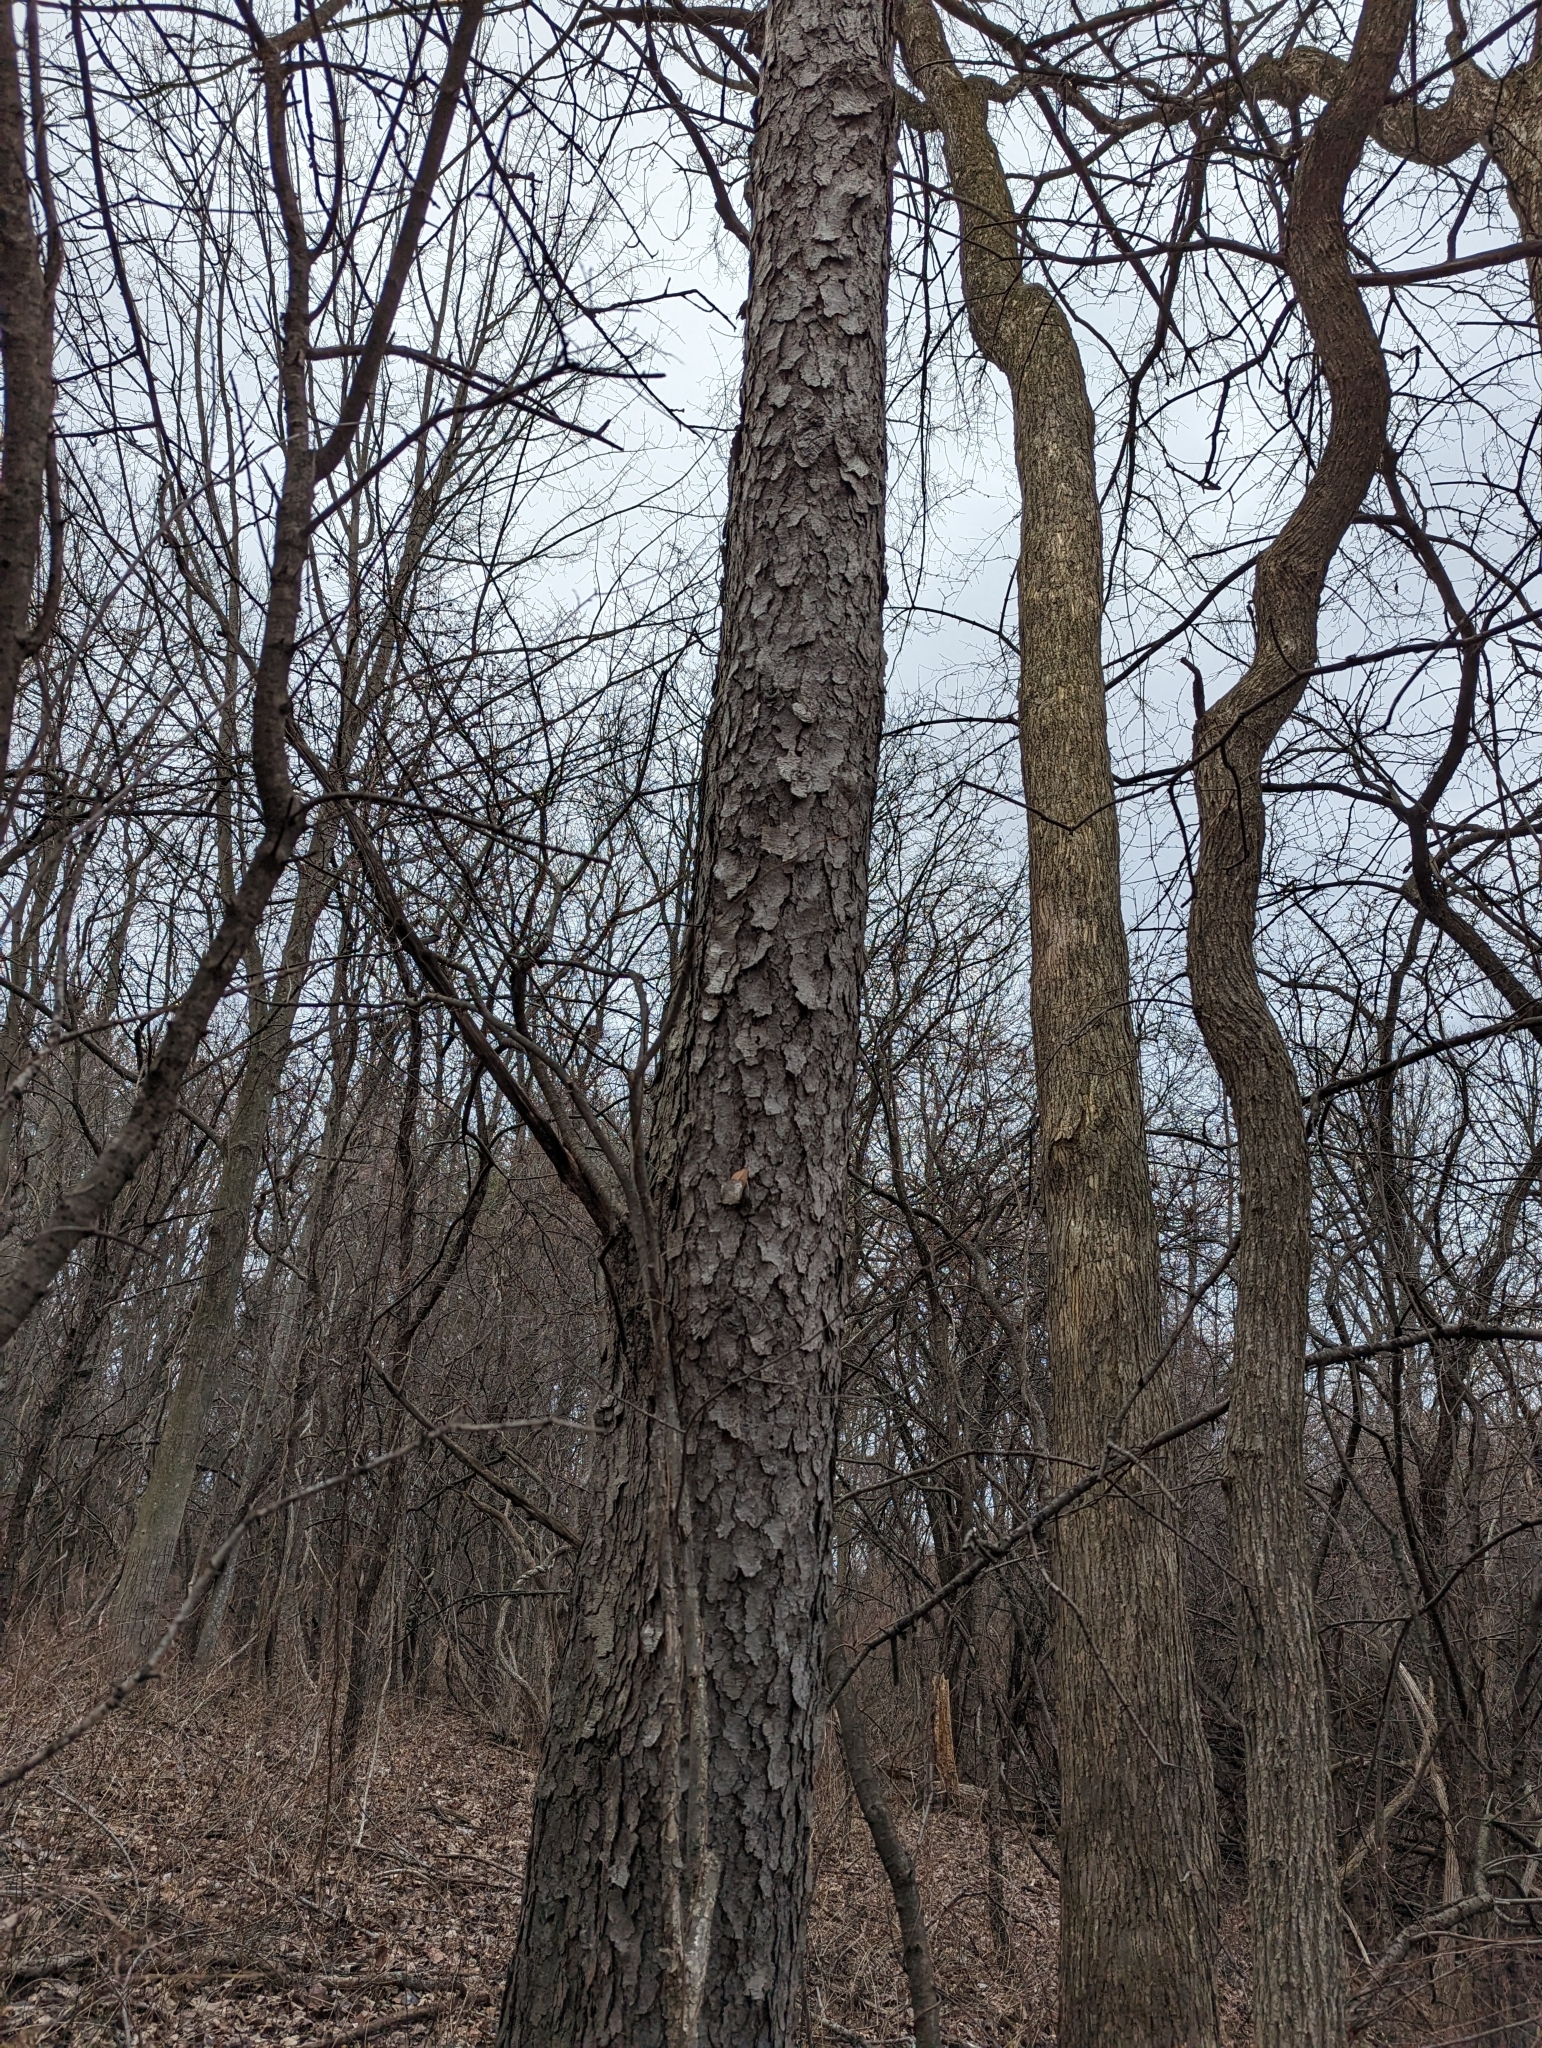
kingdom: Plantae
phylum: Tracheophyta
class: Magnoliopsida
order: Rosales
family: Rosaceae
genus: Prunus
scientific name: Prunus serotina
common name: Black cherry
